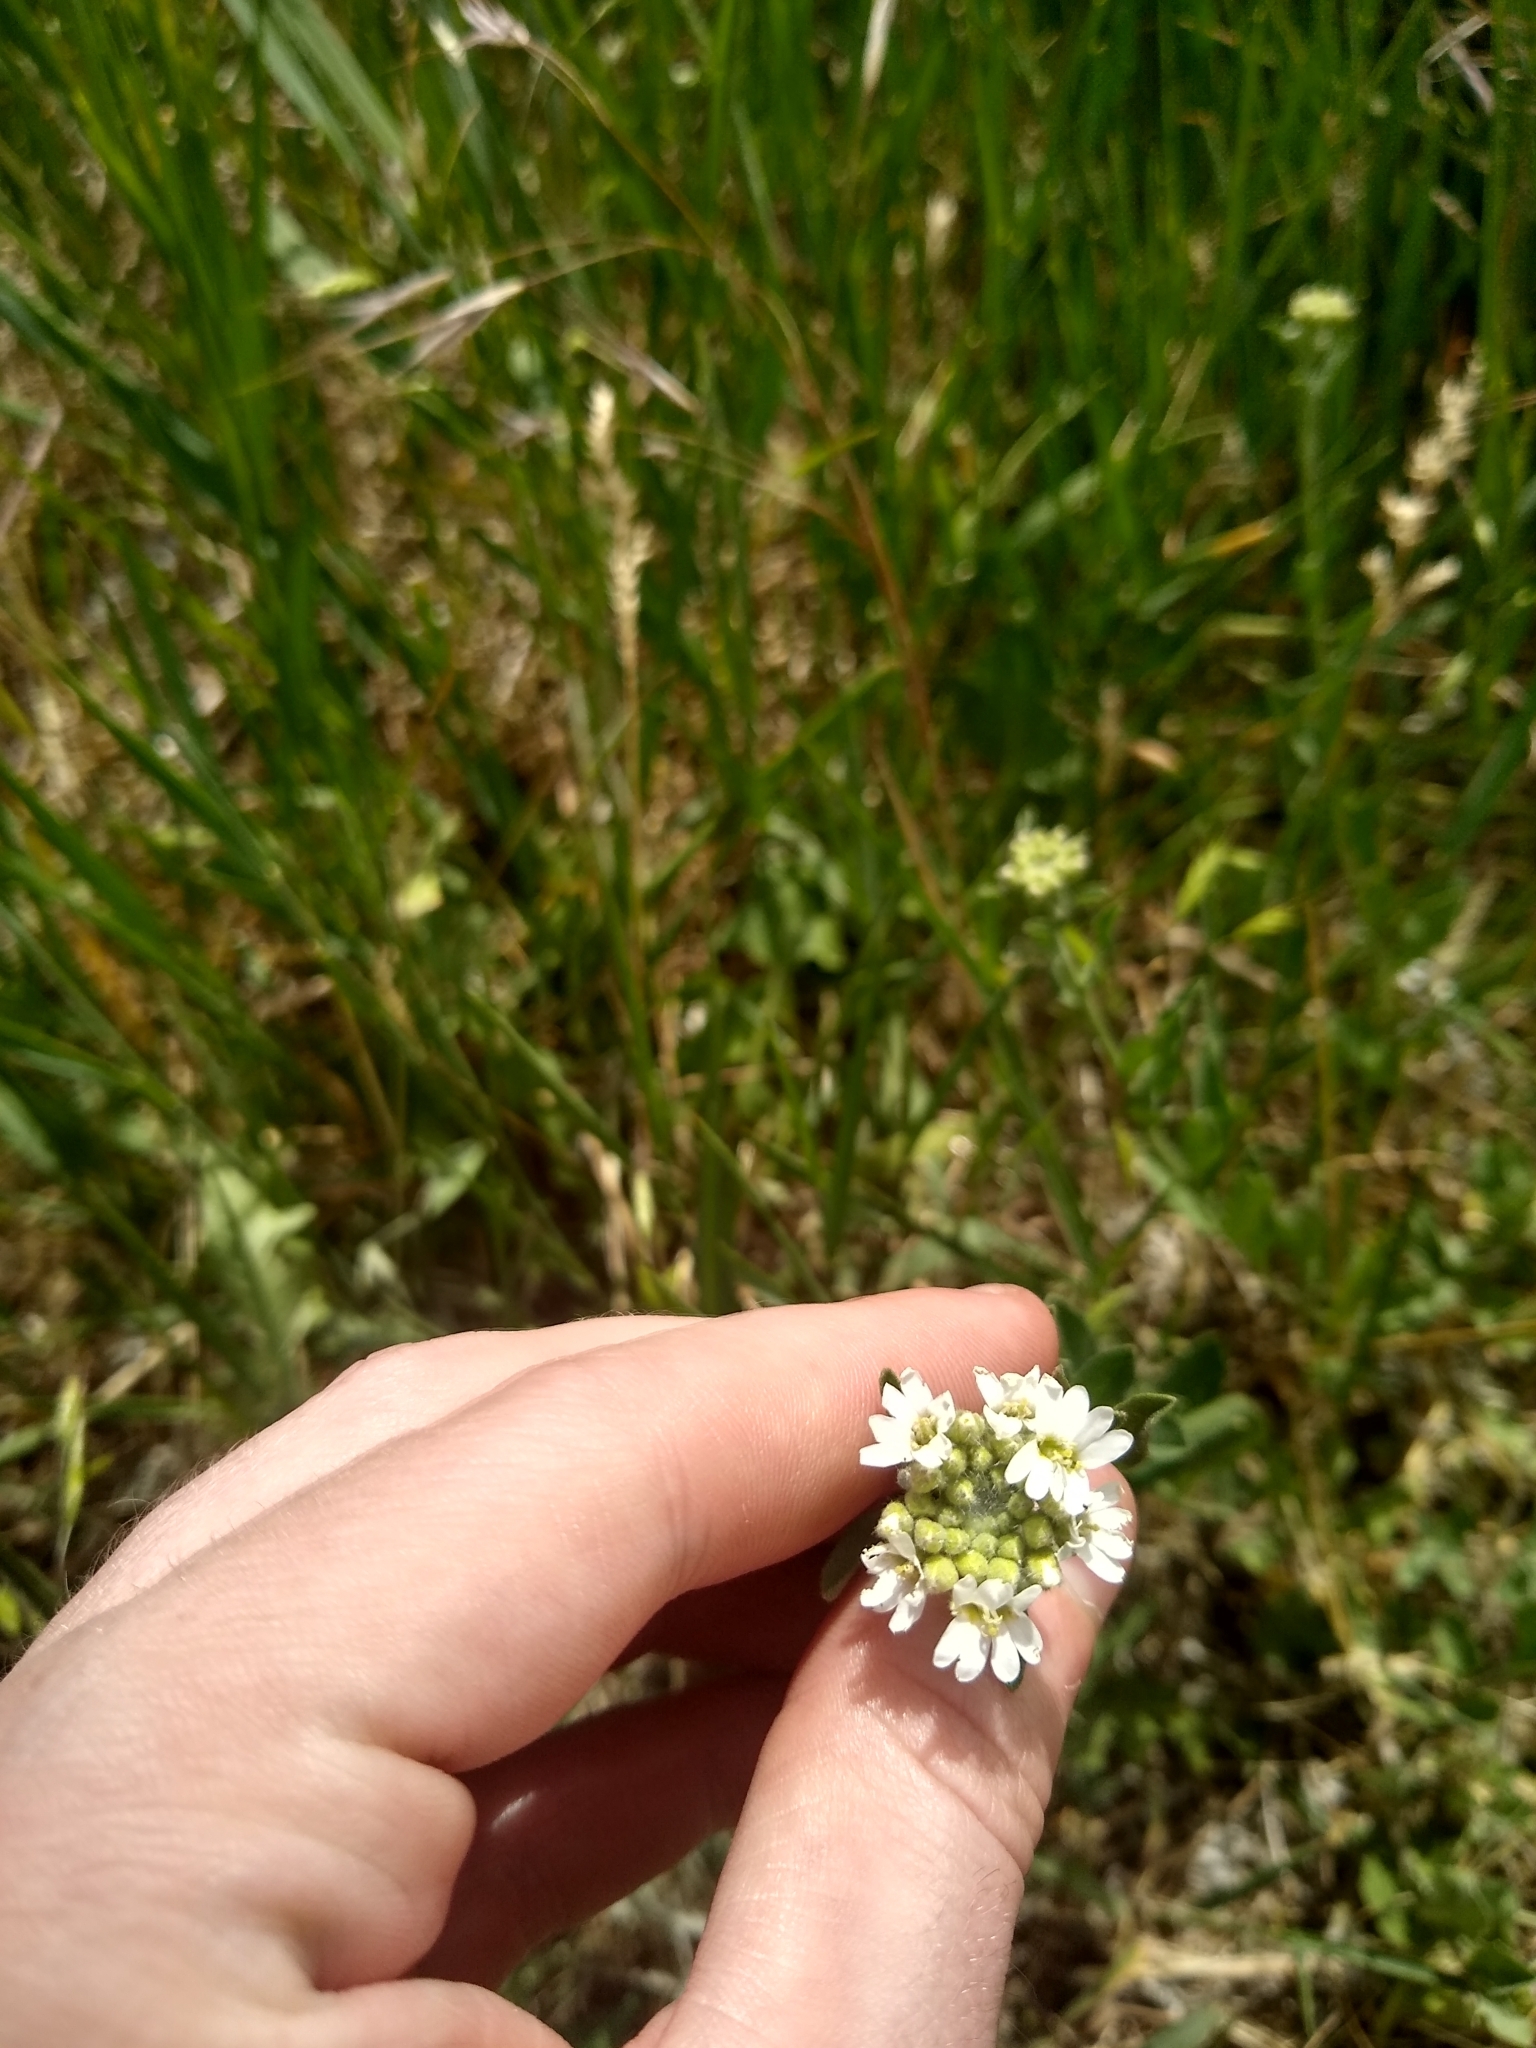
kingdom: Plantae
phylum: Tracheophyta
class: Magnoliopsida
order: Brassicales
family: Brassicaceae
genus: Berteroa
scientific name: Berteroa incana
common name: Hoary alison
